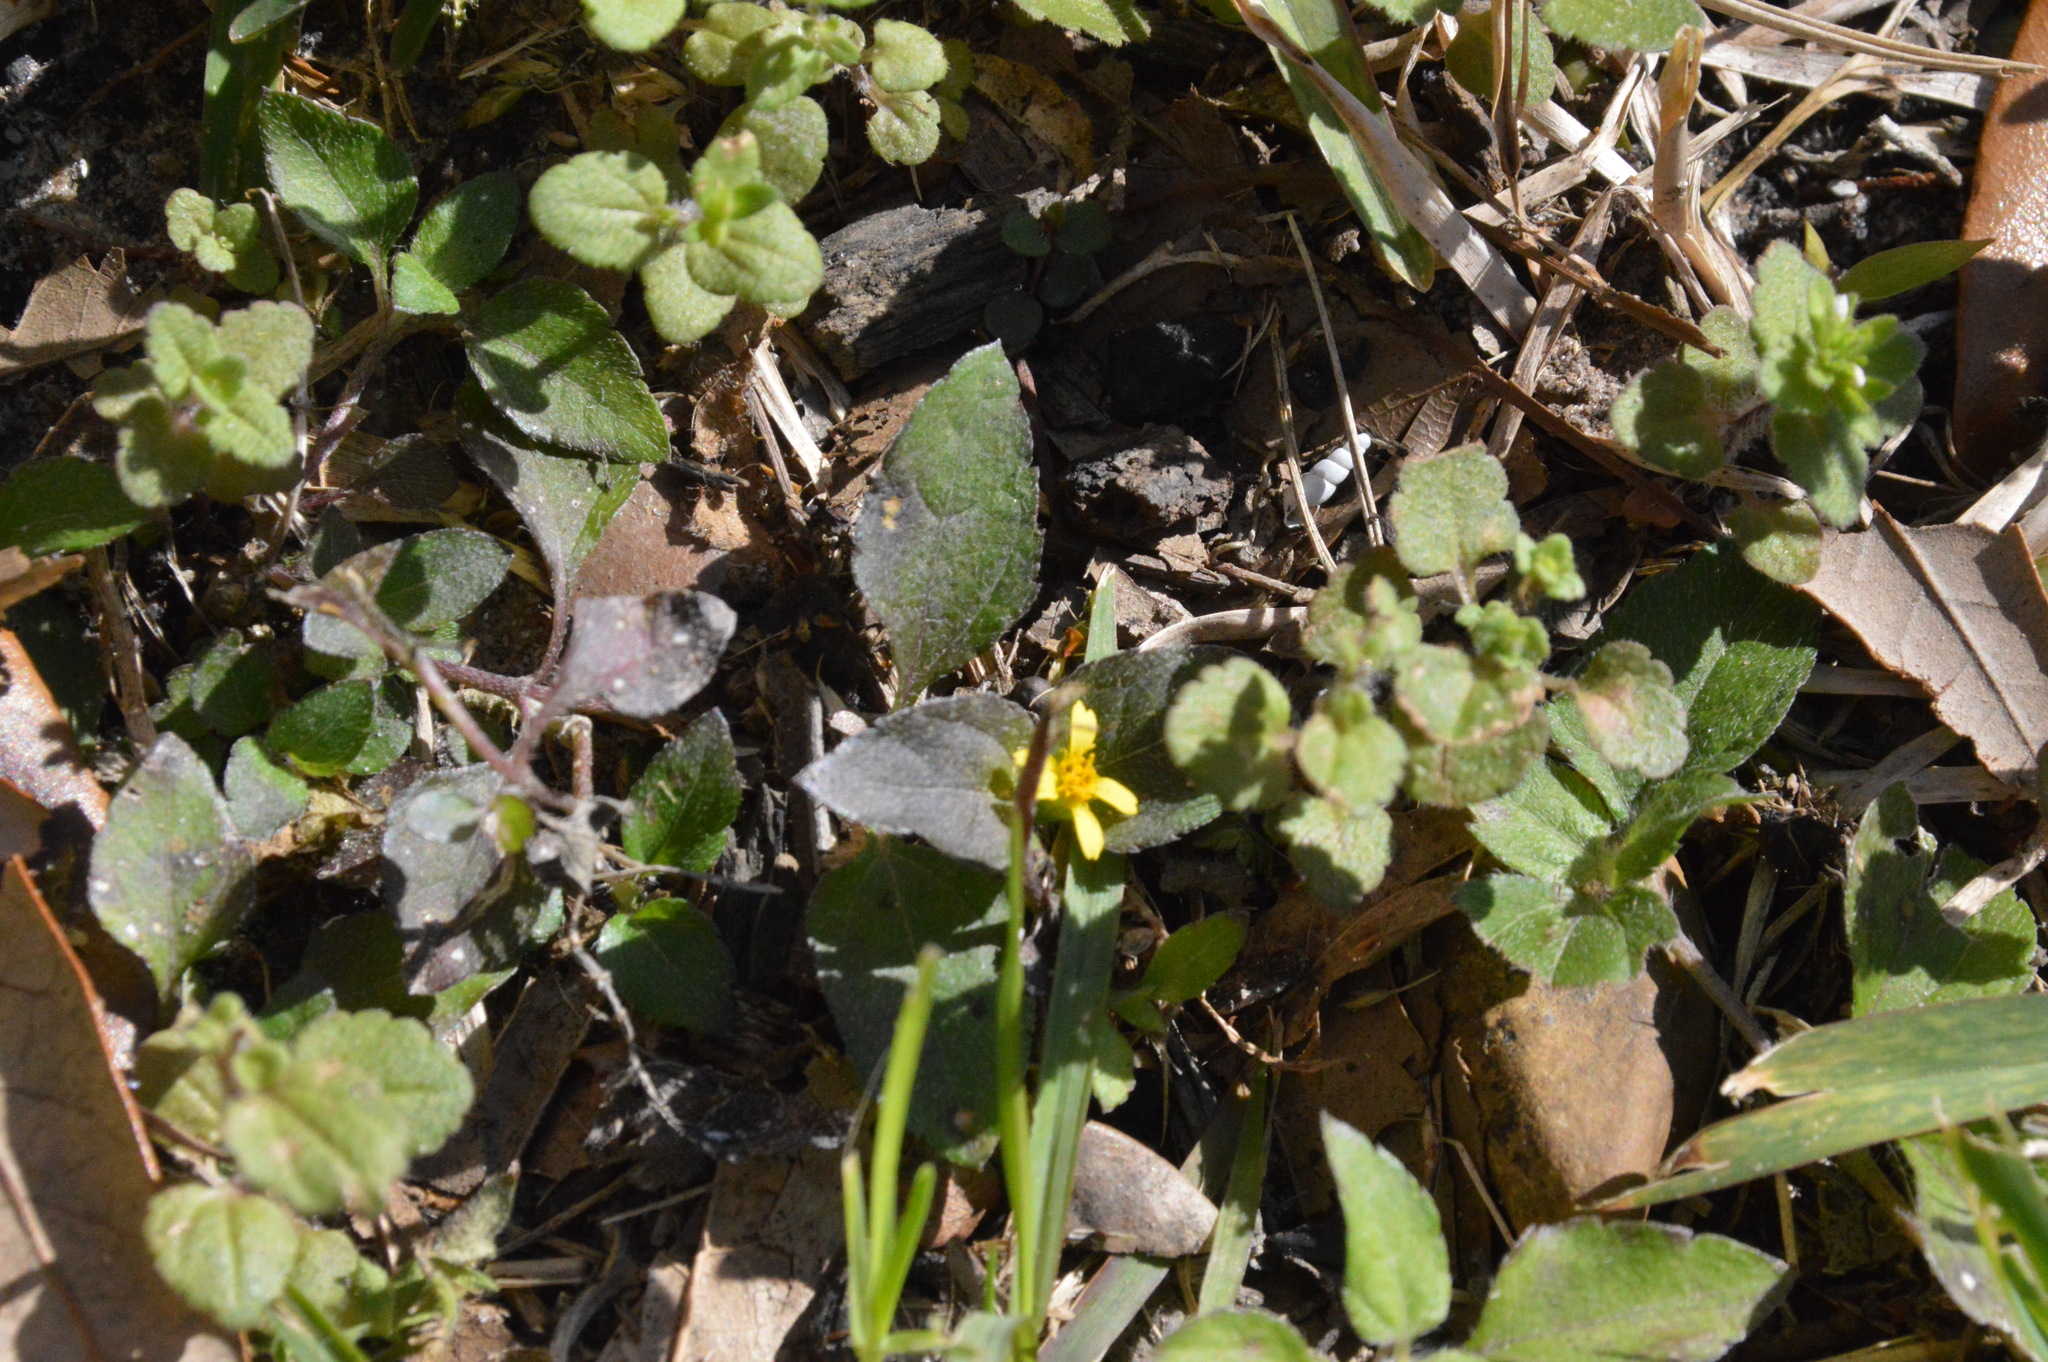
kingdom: Plantae
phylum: Tracheophyta
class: Magnoliopsida
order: Asterales
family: Asteraceae
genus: Calyptocarpus
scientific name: Calyptocarpus vialis
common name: Straggler daisy
